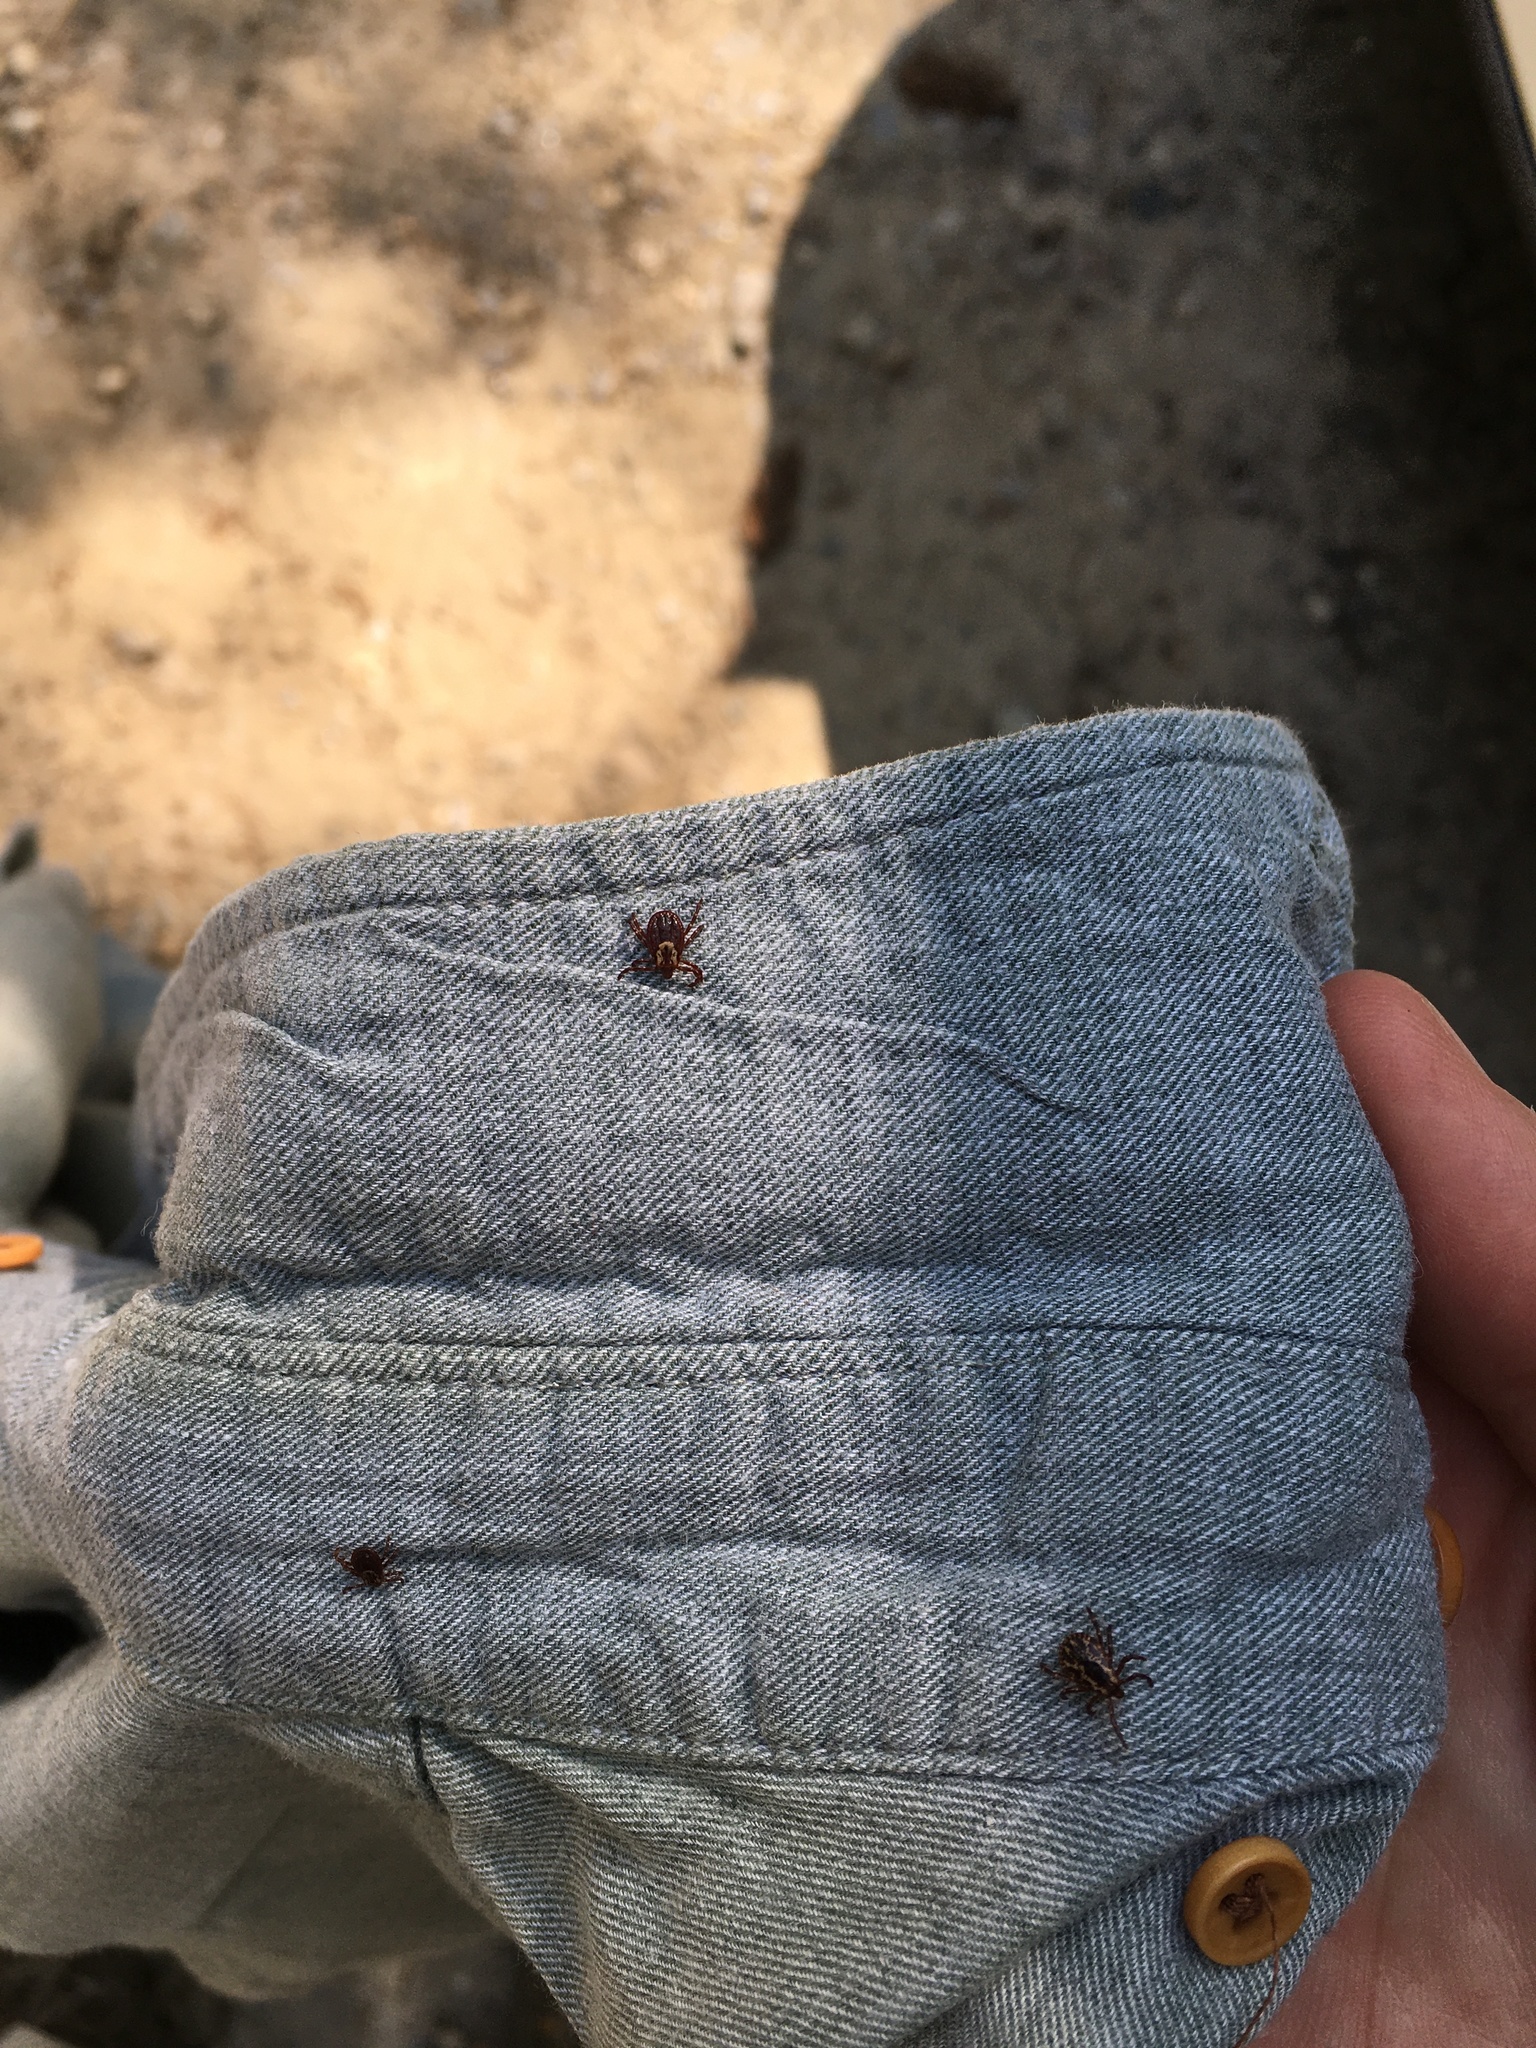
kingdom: Animalia
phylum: Arthropoda
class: Arachnida
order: Ixodida
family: Ixodidae
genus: Dermacentor
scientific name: Dermacentor variabilis
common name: American dog tick
